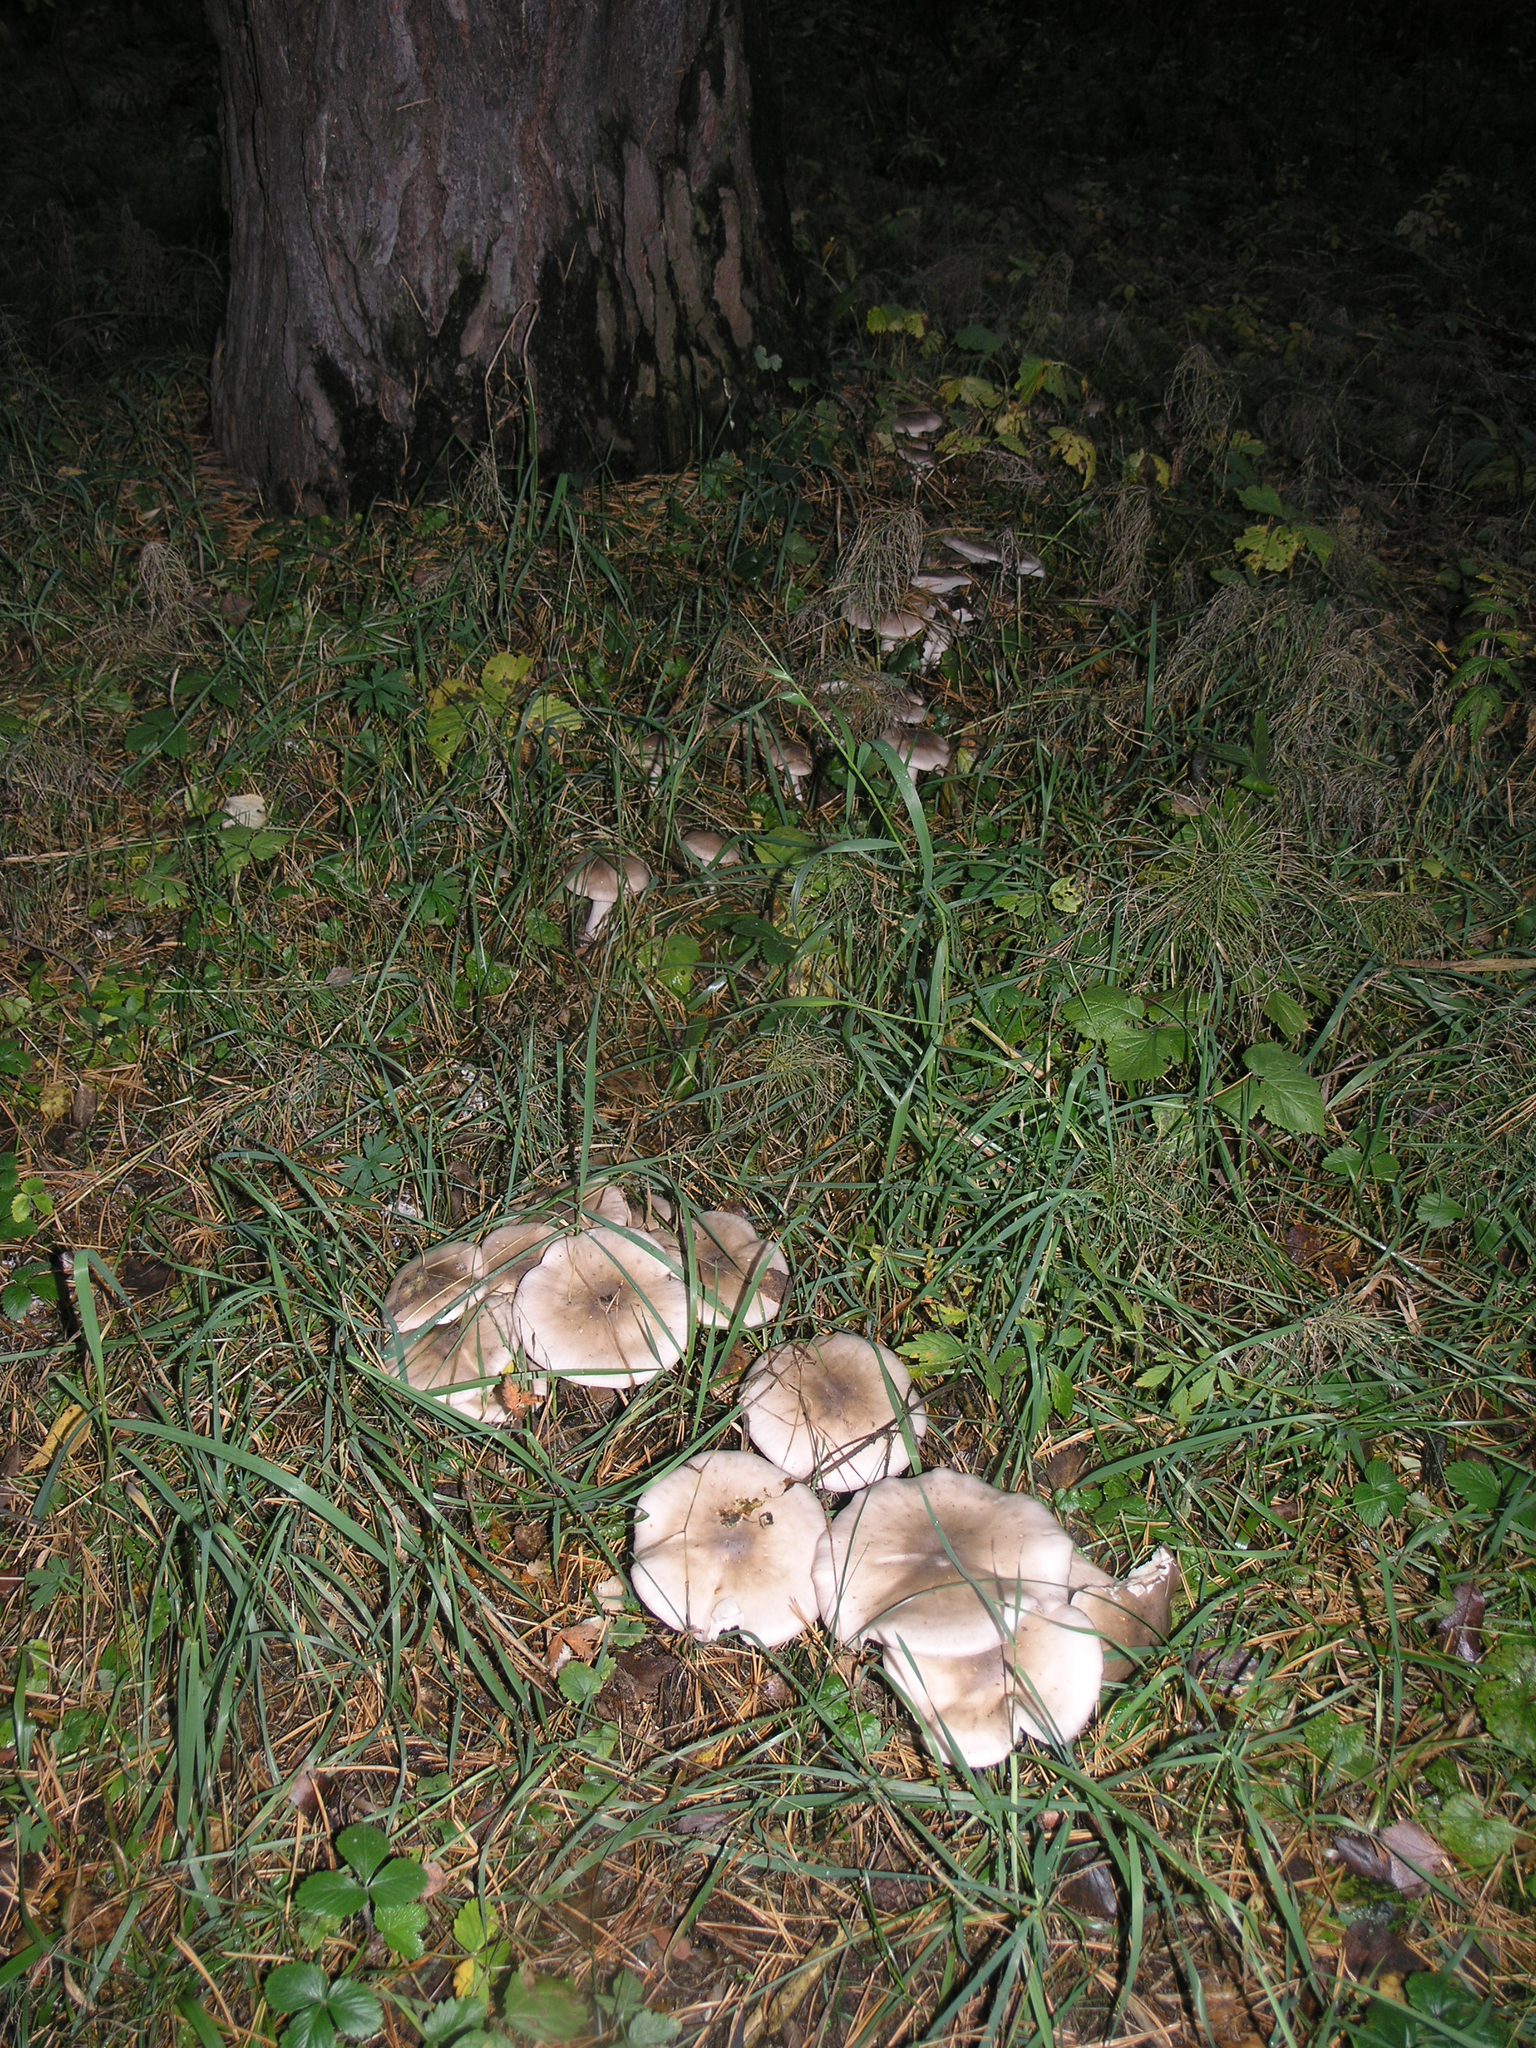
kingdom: Fungi
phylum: Basidiomycota
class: Agaricomycetes
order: Agaricales
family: Tricholomataceae
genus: Clitocybe
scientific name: Clitocybe nebularis
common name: Clouded agaric
